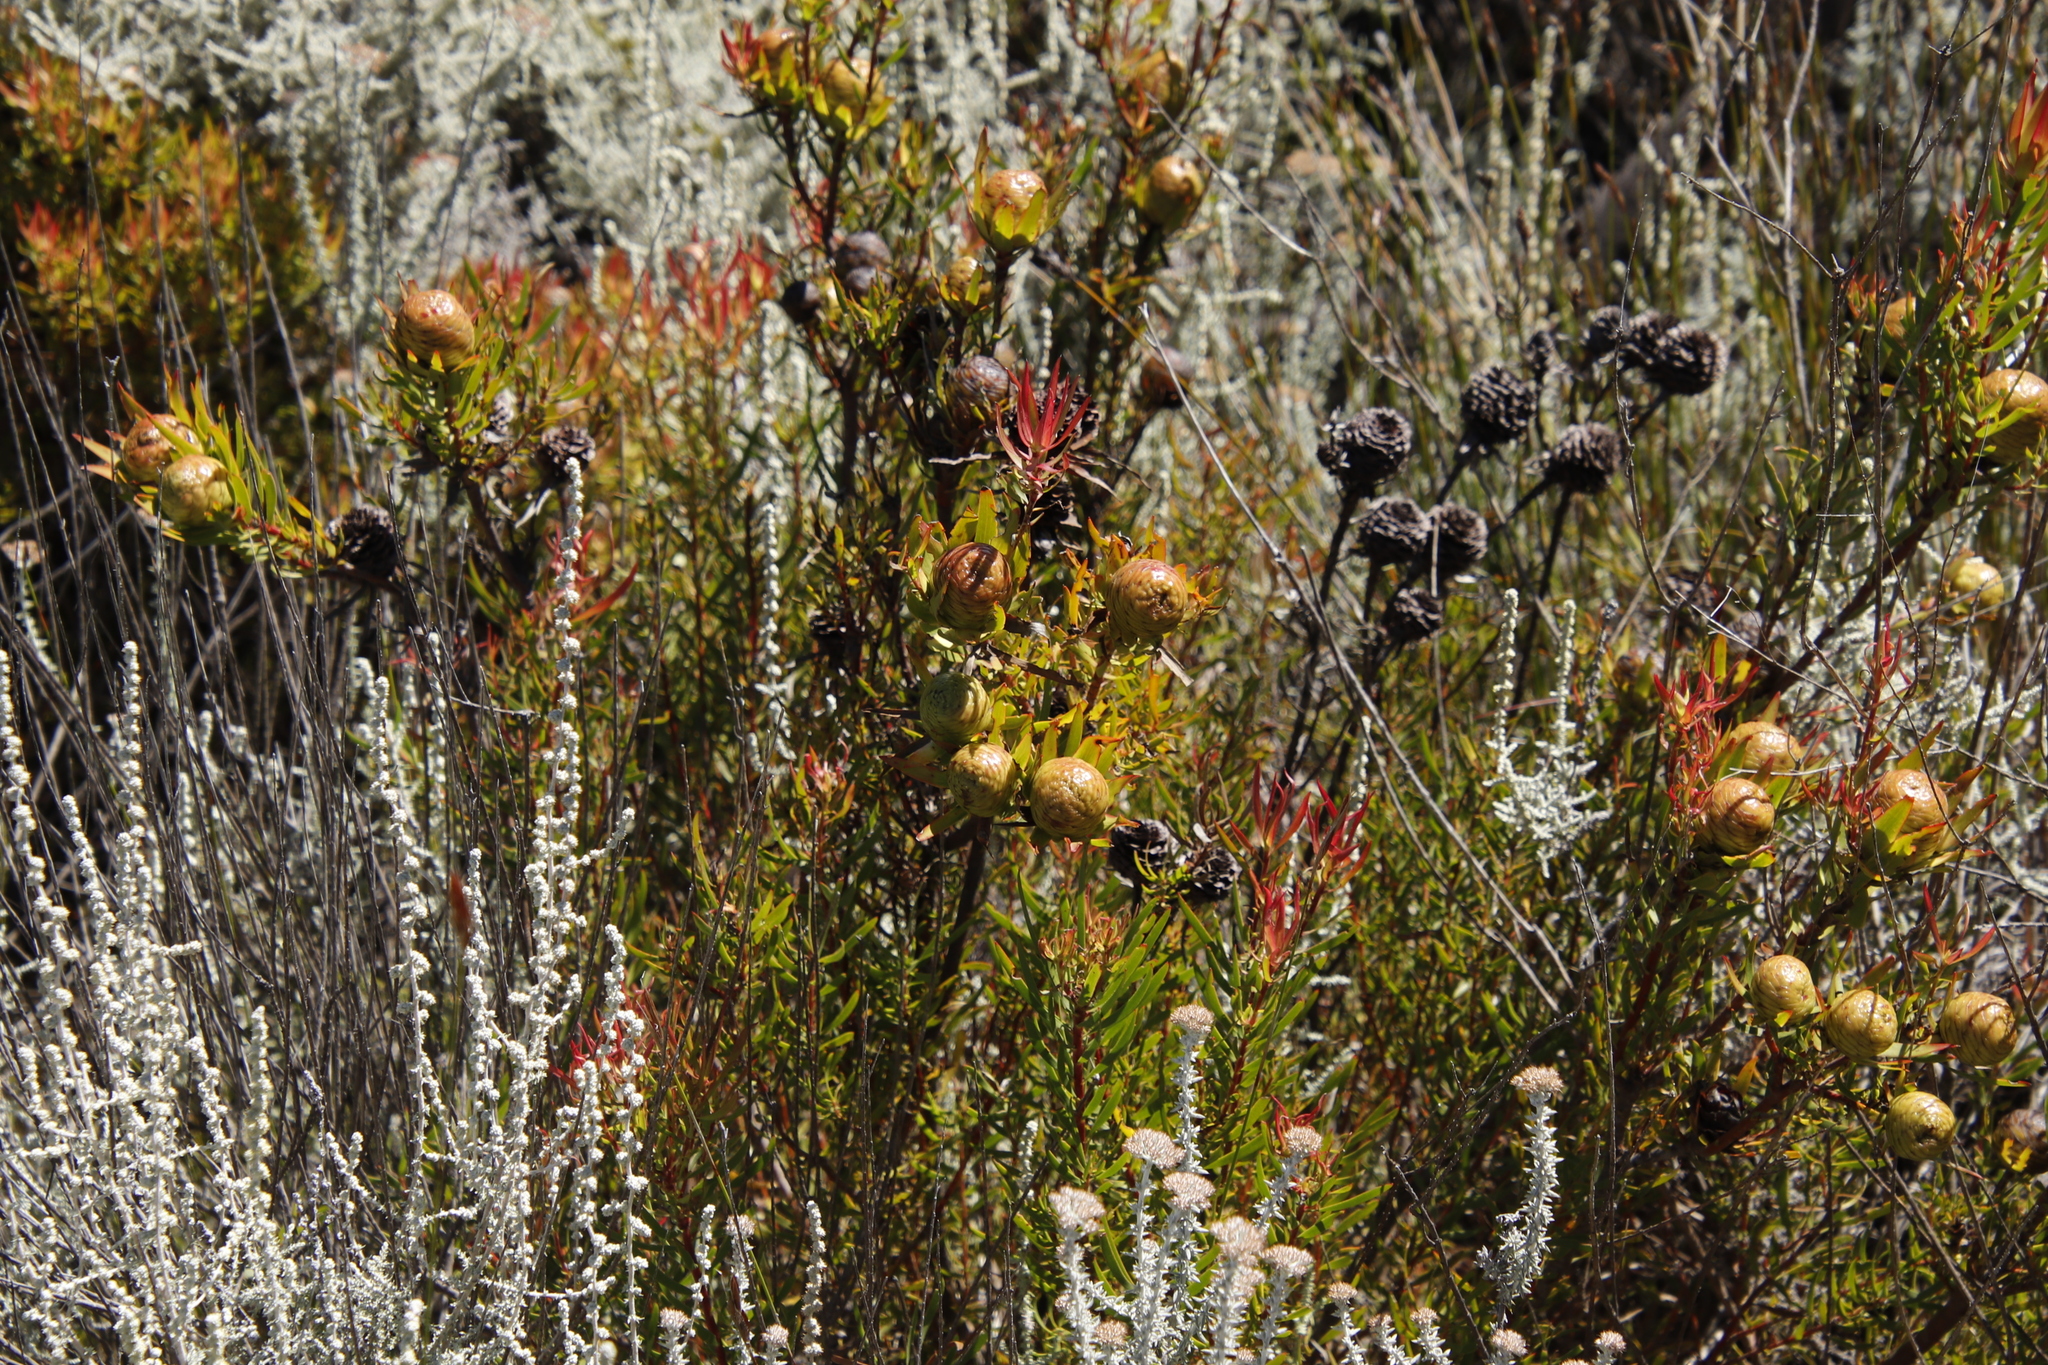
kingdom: Plantae
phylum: Tracheophyta
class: Magnoliopsida
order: Proteales
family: Proteaceae
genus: Leucadendron
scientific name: Leucadendron spissifolium
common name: Spear-leaf conebush
